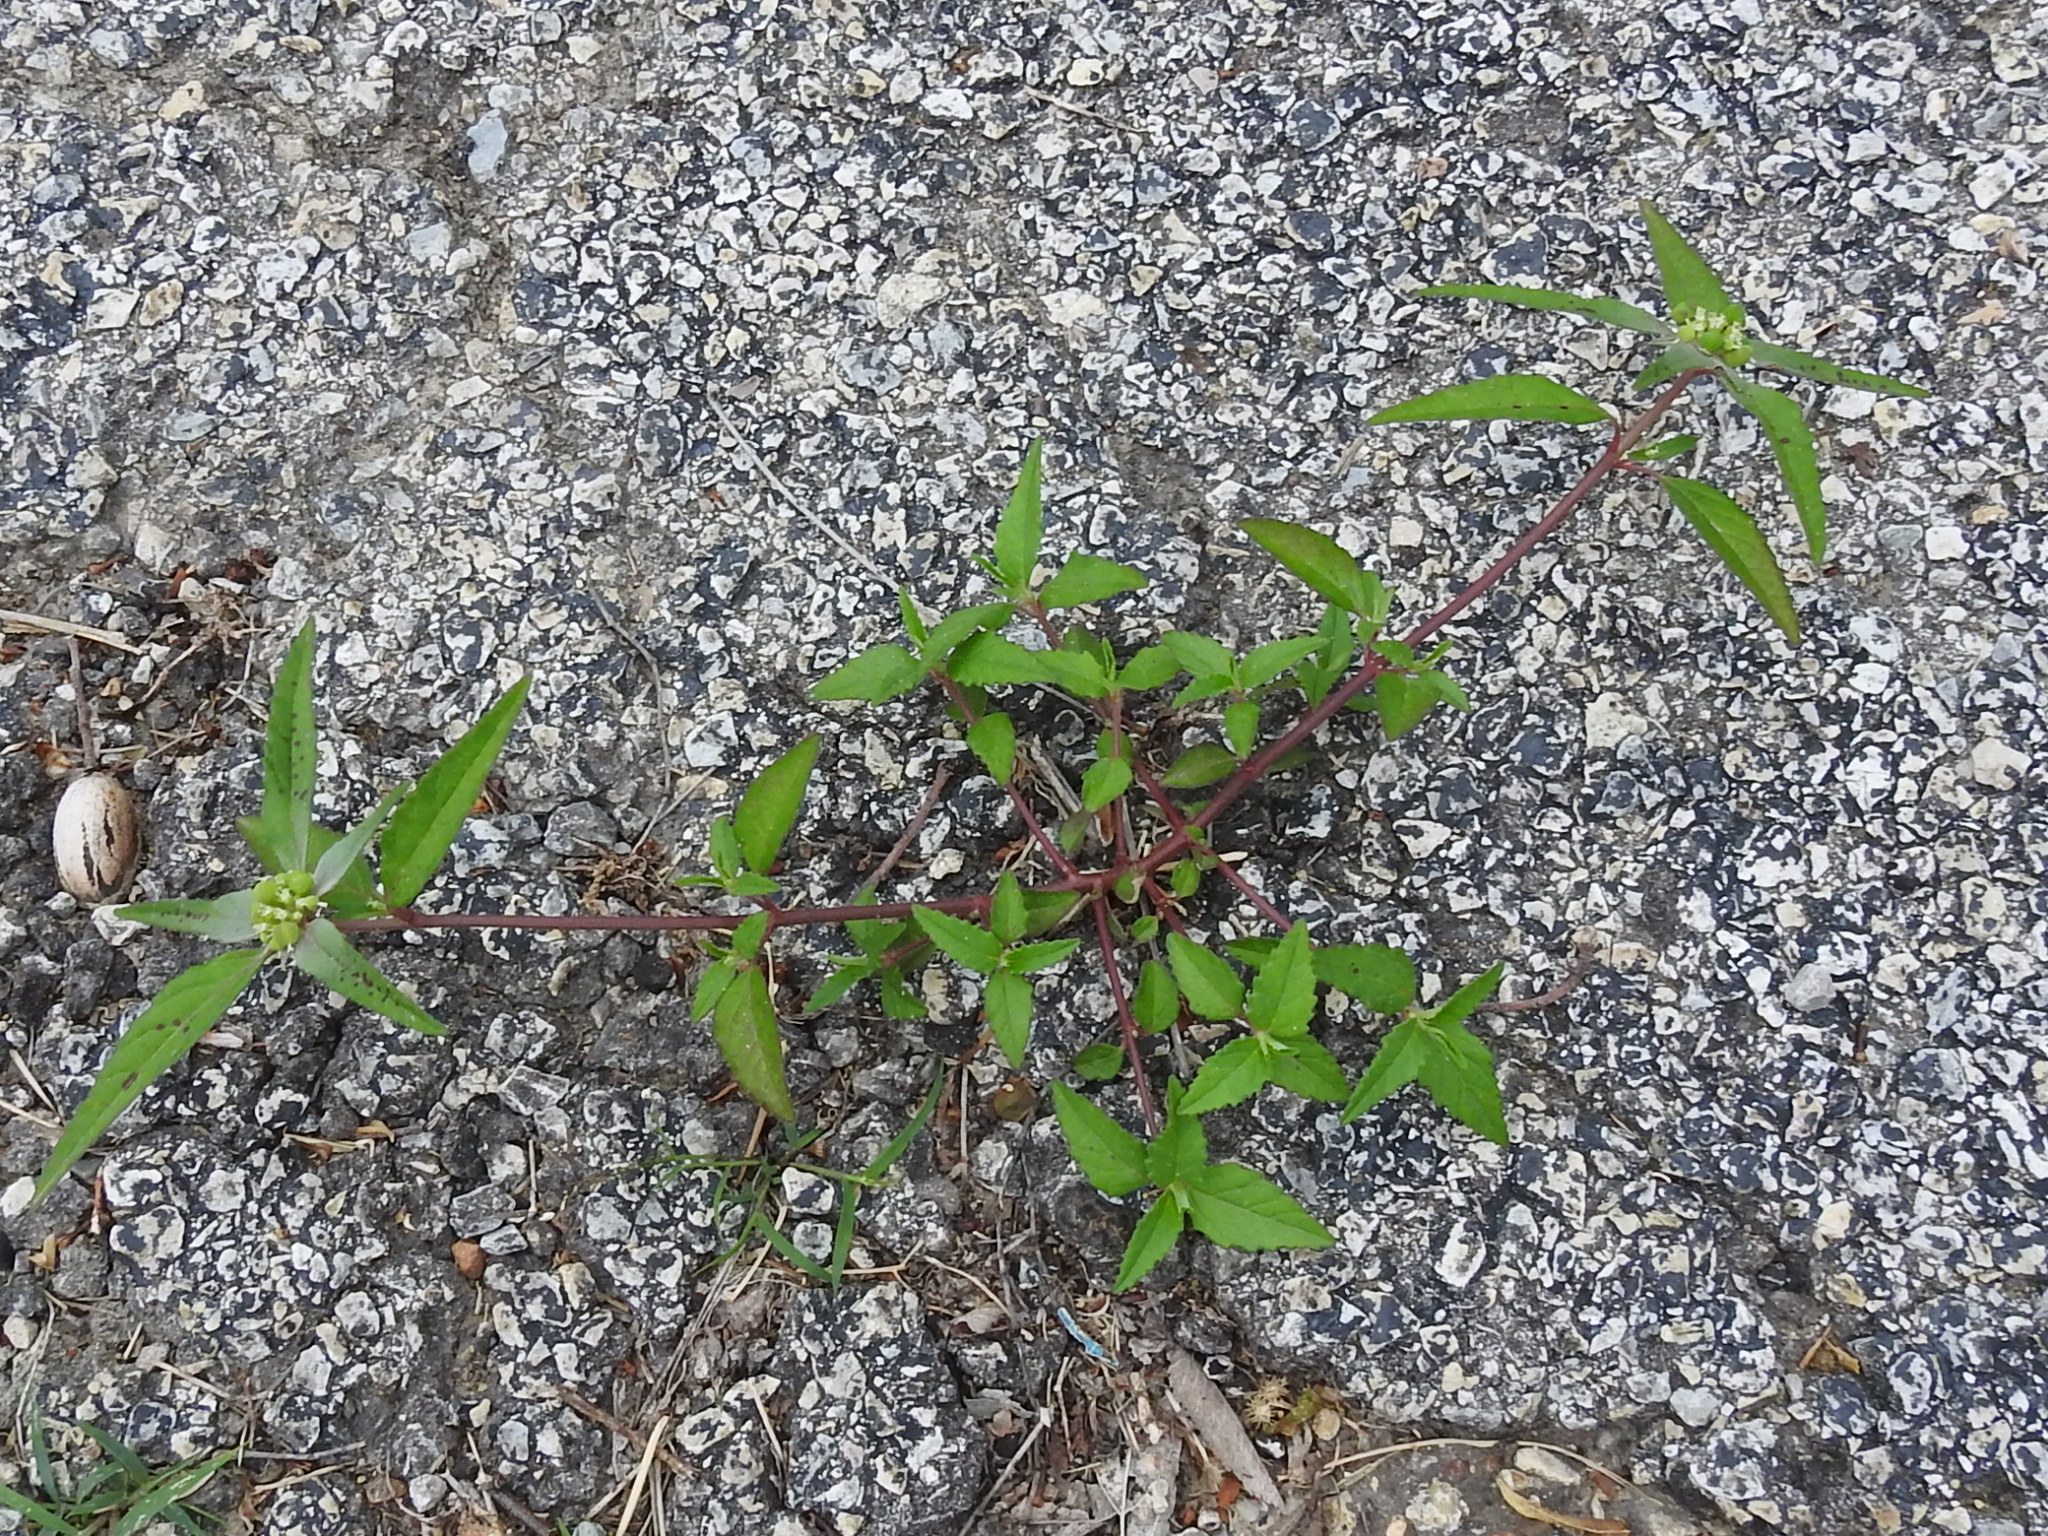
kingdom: Plantae
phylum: Tracheophyta
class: Magnoliopsida
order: Malpighiales
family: Euphorbiaceae
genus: Euphorbia
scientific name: Euphorbia dentata
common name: Dentate spurge
